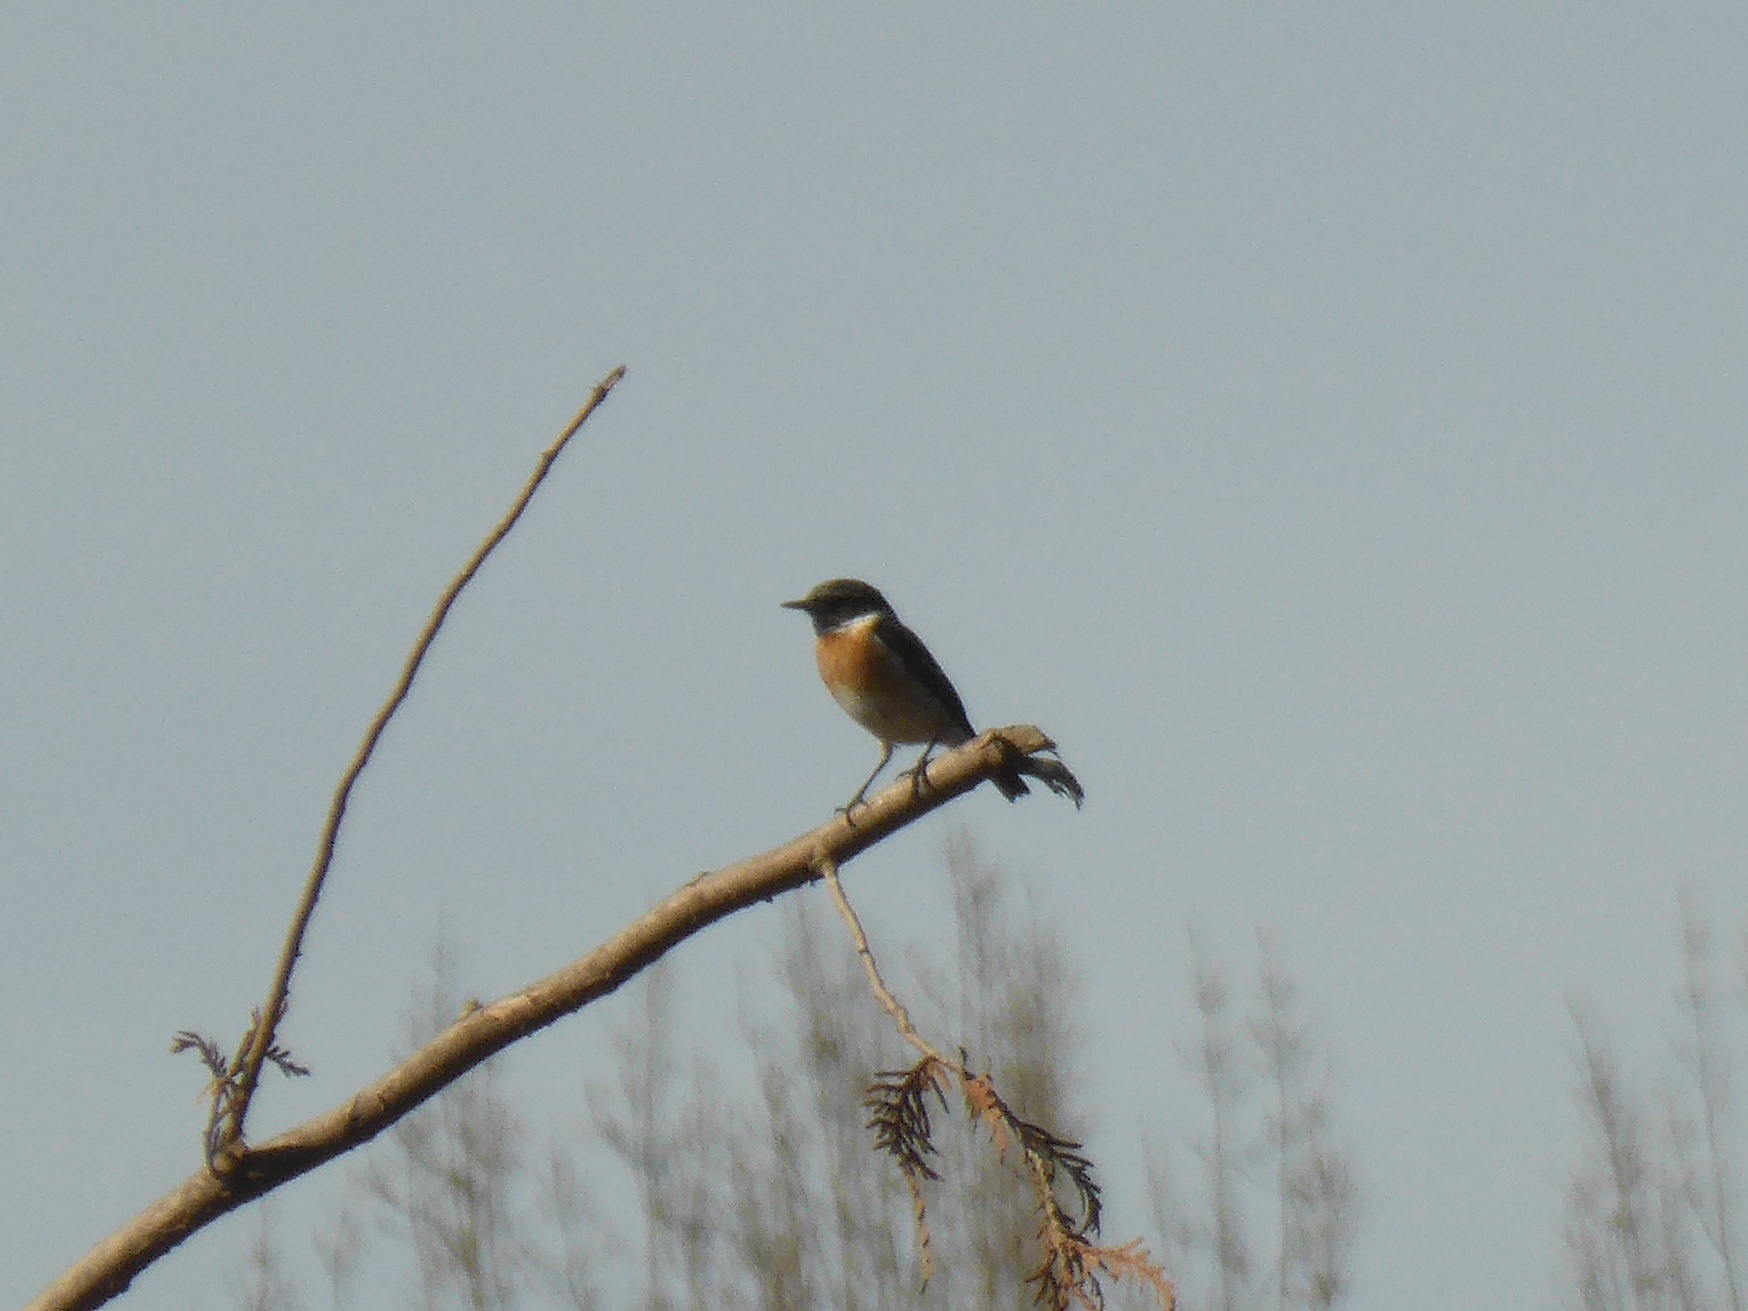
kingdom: Animalia
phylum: Chordata
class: Aves
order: Passeriformes
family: Muscicapidae
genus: Saxicola
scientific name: Saxicola rubicola
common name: European stonechat
